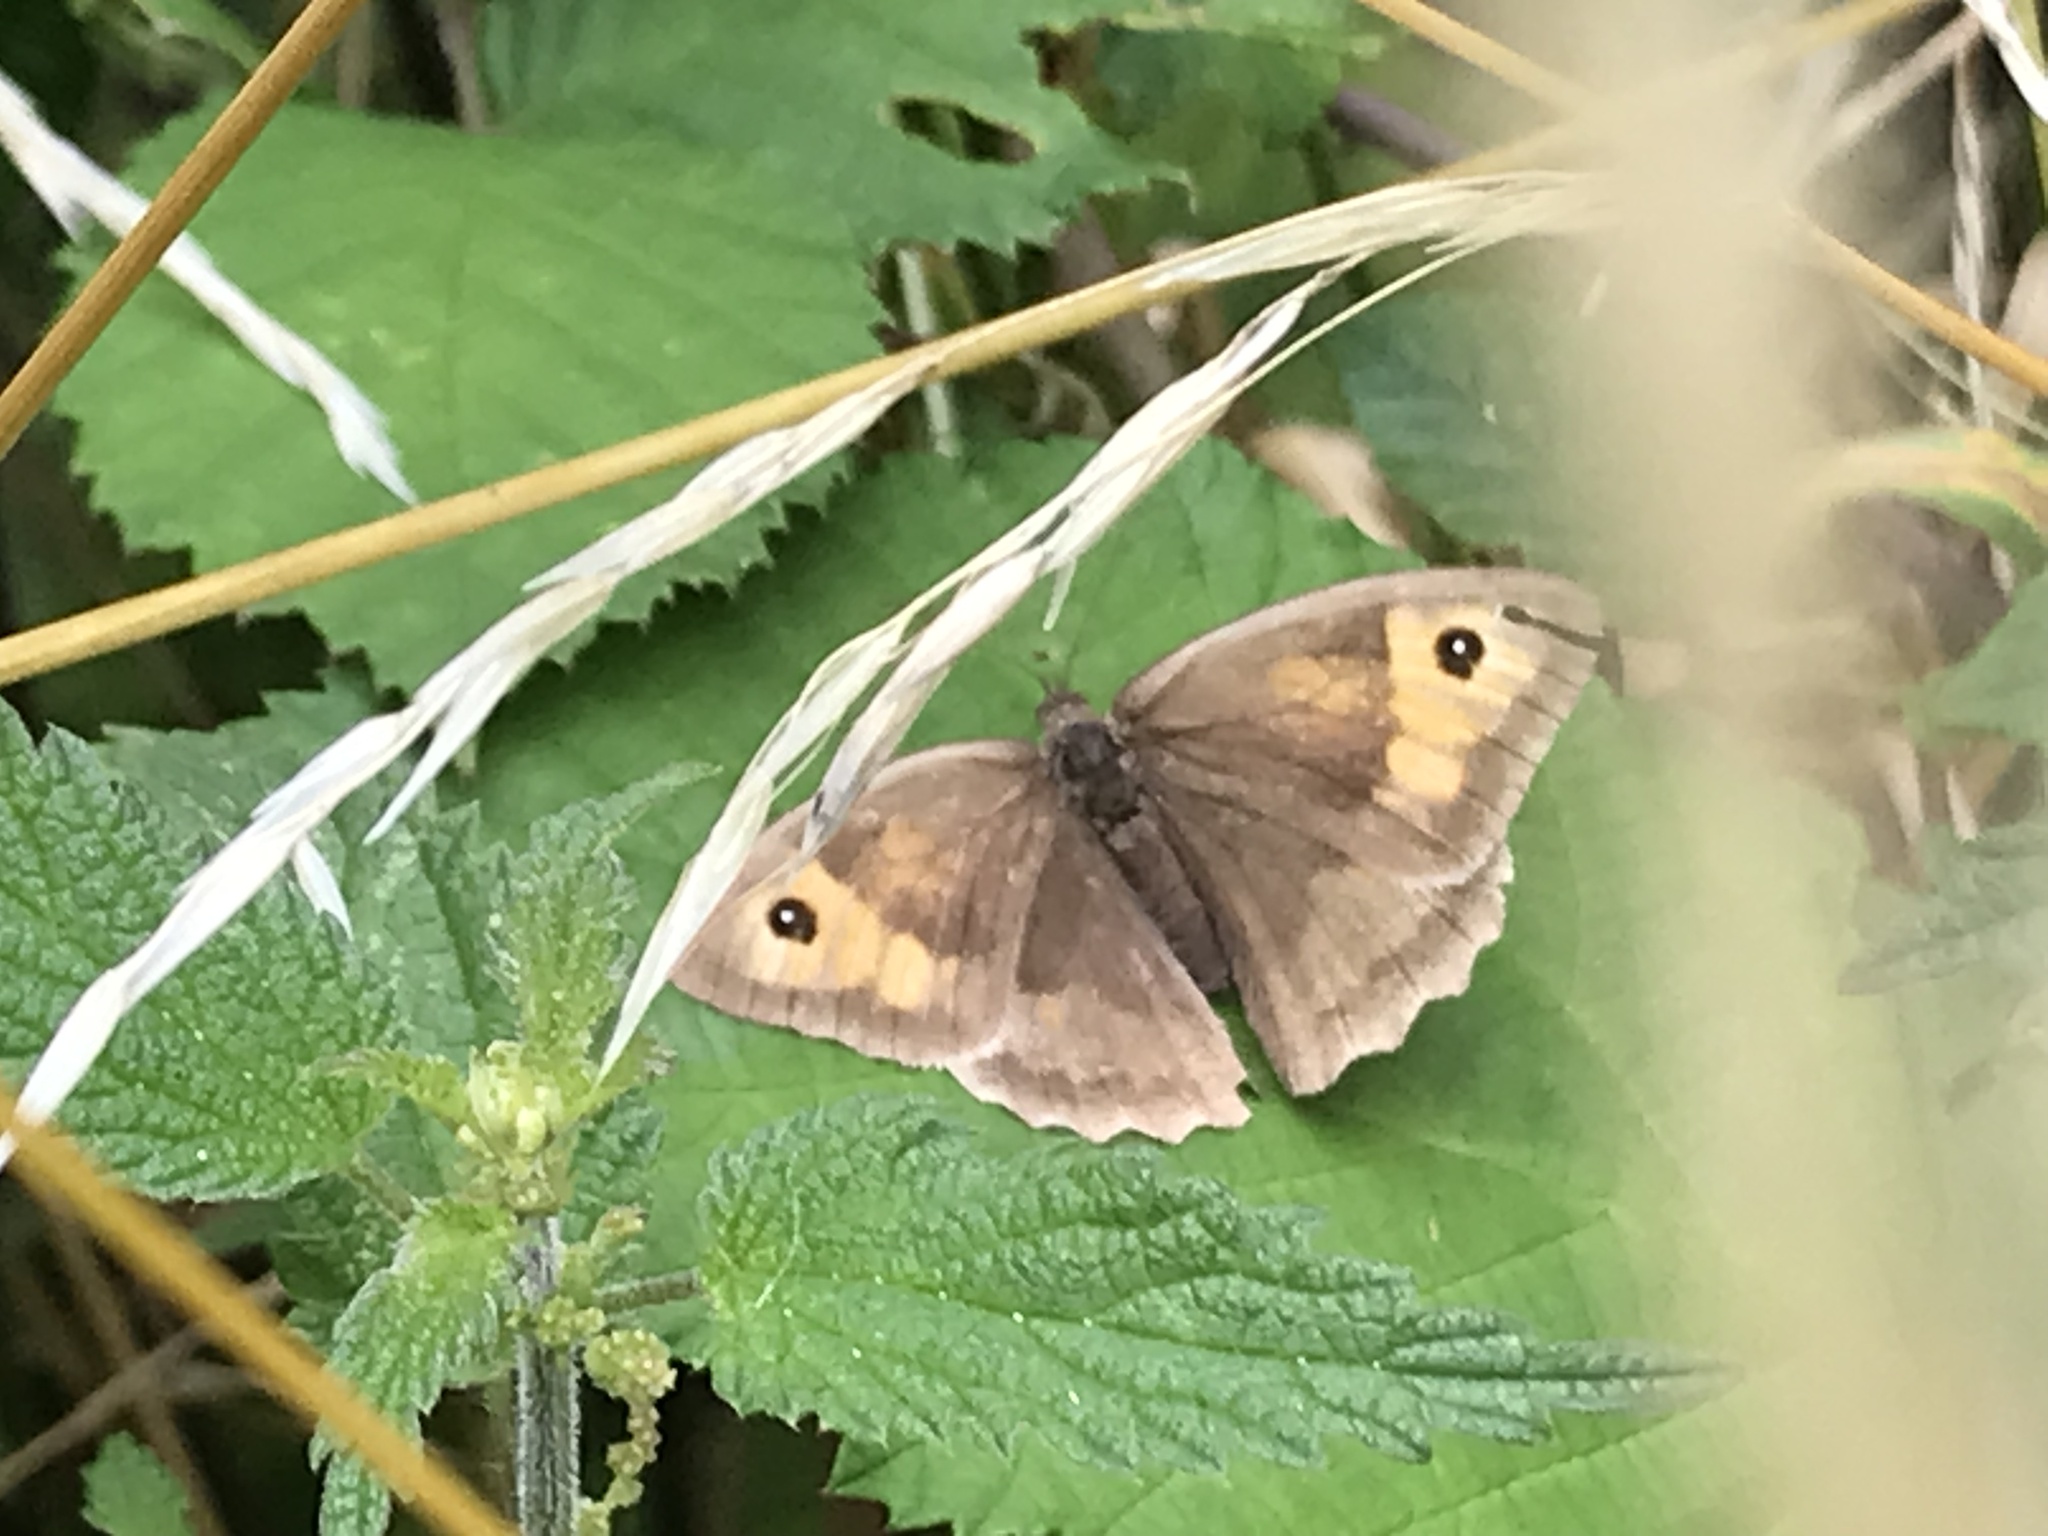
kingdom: Animalia
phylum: Arthropoda
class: Insecta
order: Lepidoptera
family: Nymphalidae
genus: Maniola
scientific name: Maniola jurtina
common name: Meadow brown
